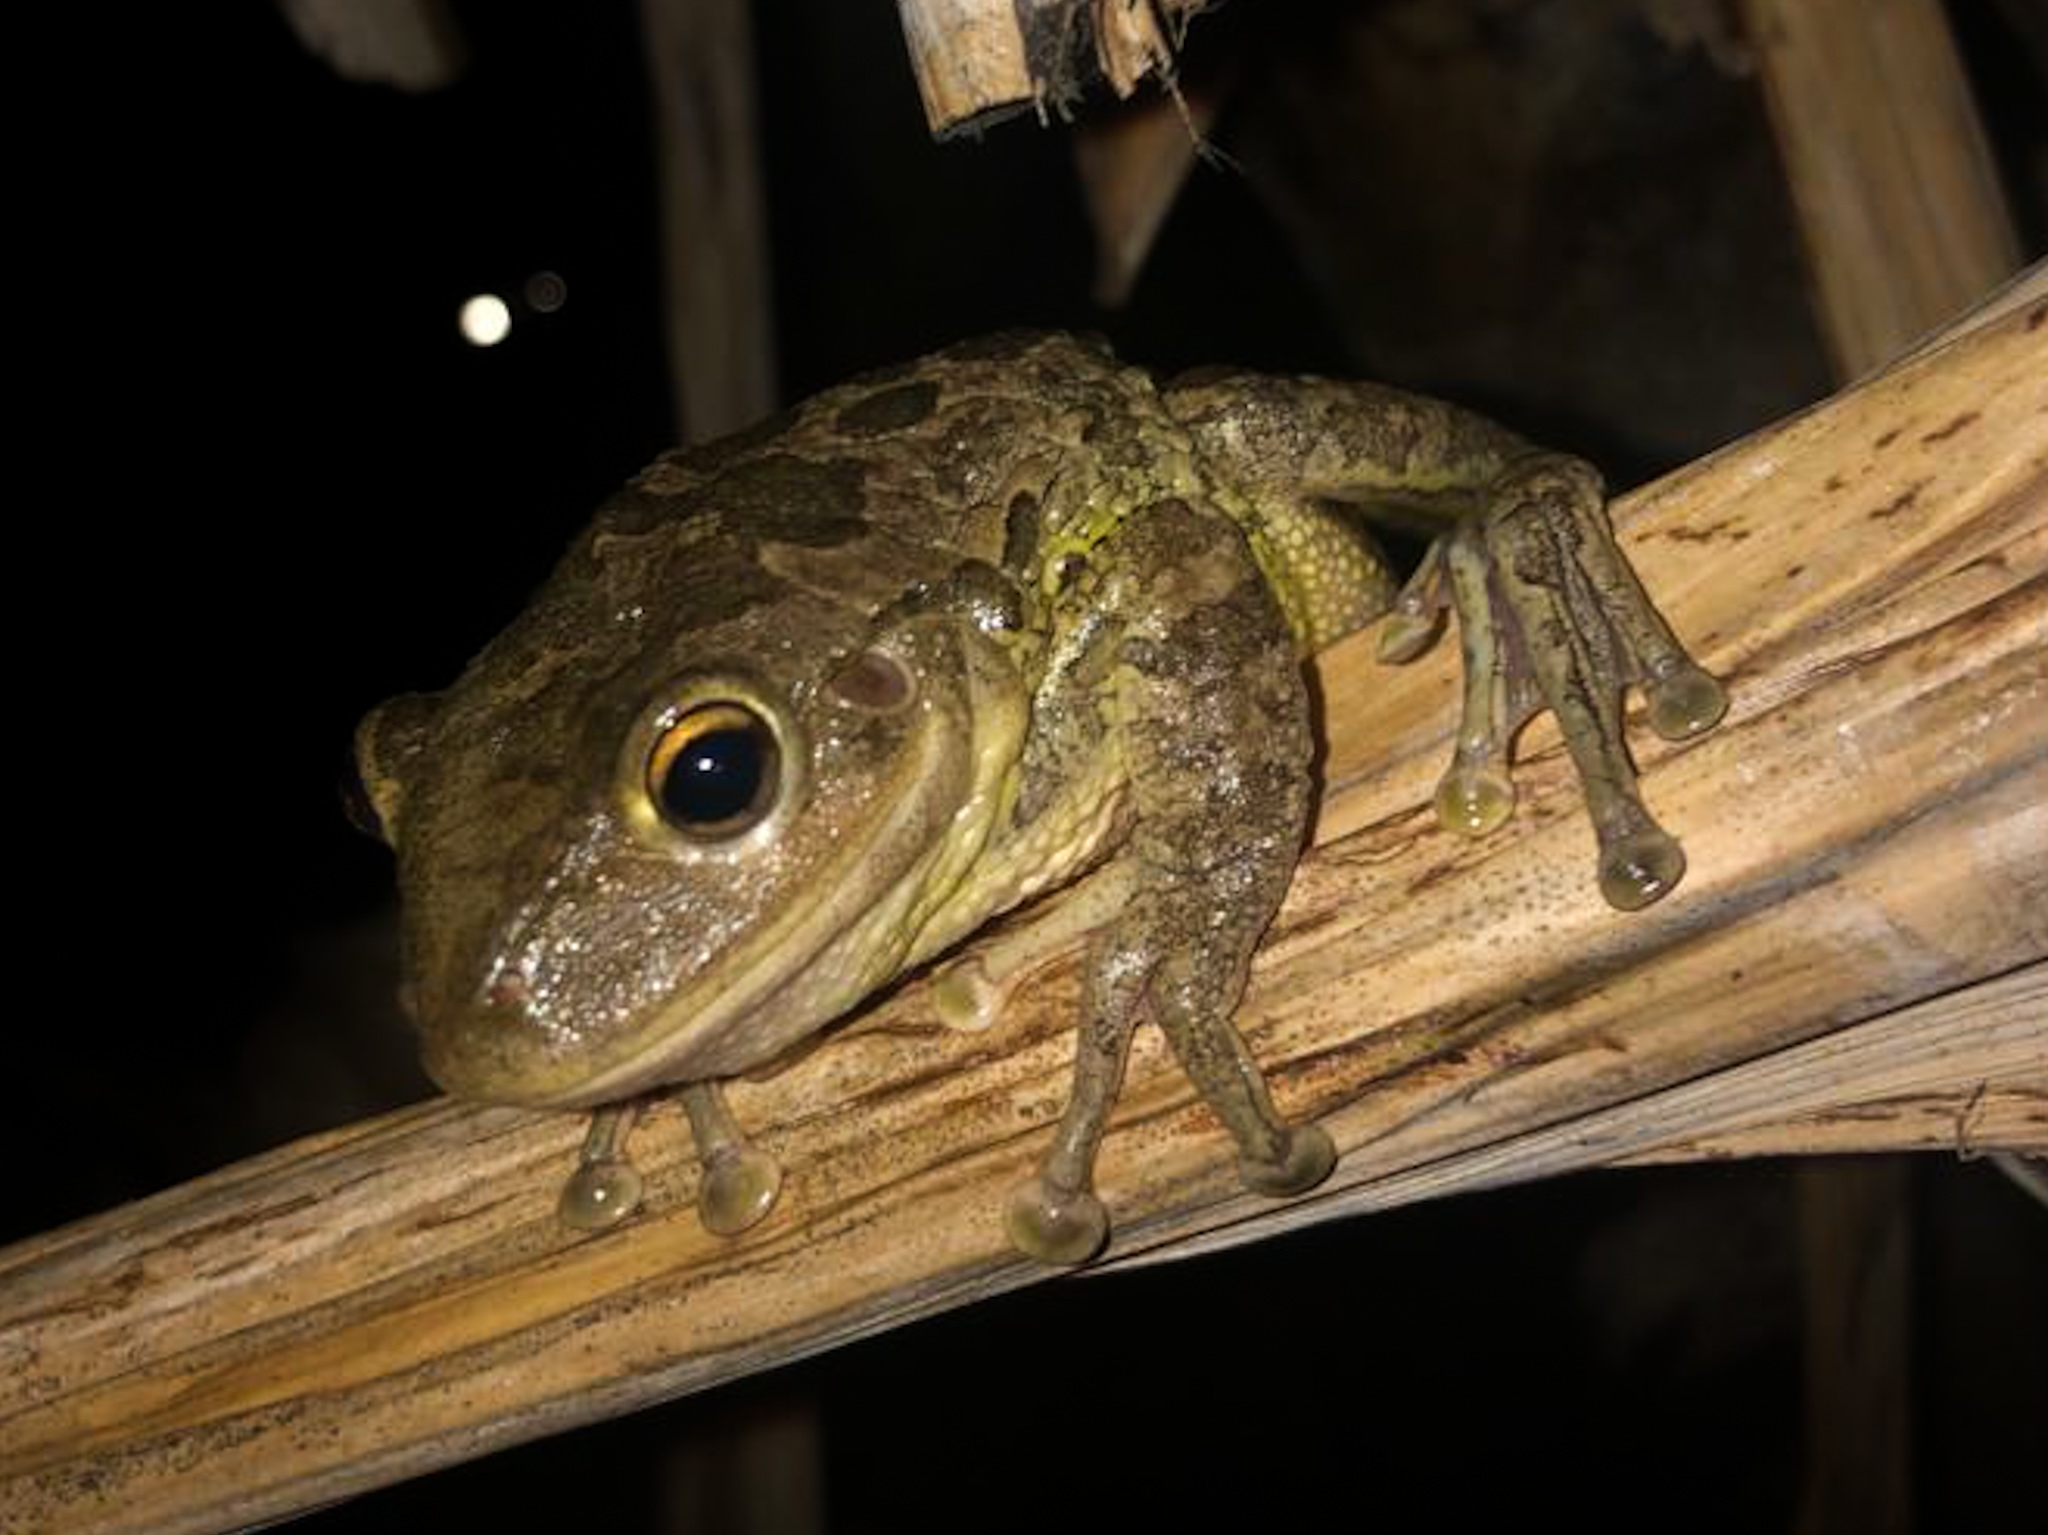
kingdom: Animalia
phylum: Chordata
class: Amphibia
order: Anura
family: Hylidae
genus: Osteopilus
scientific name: Osteopilus septentrionalis
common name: Cuban treefrog
